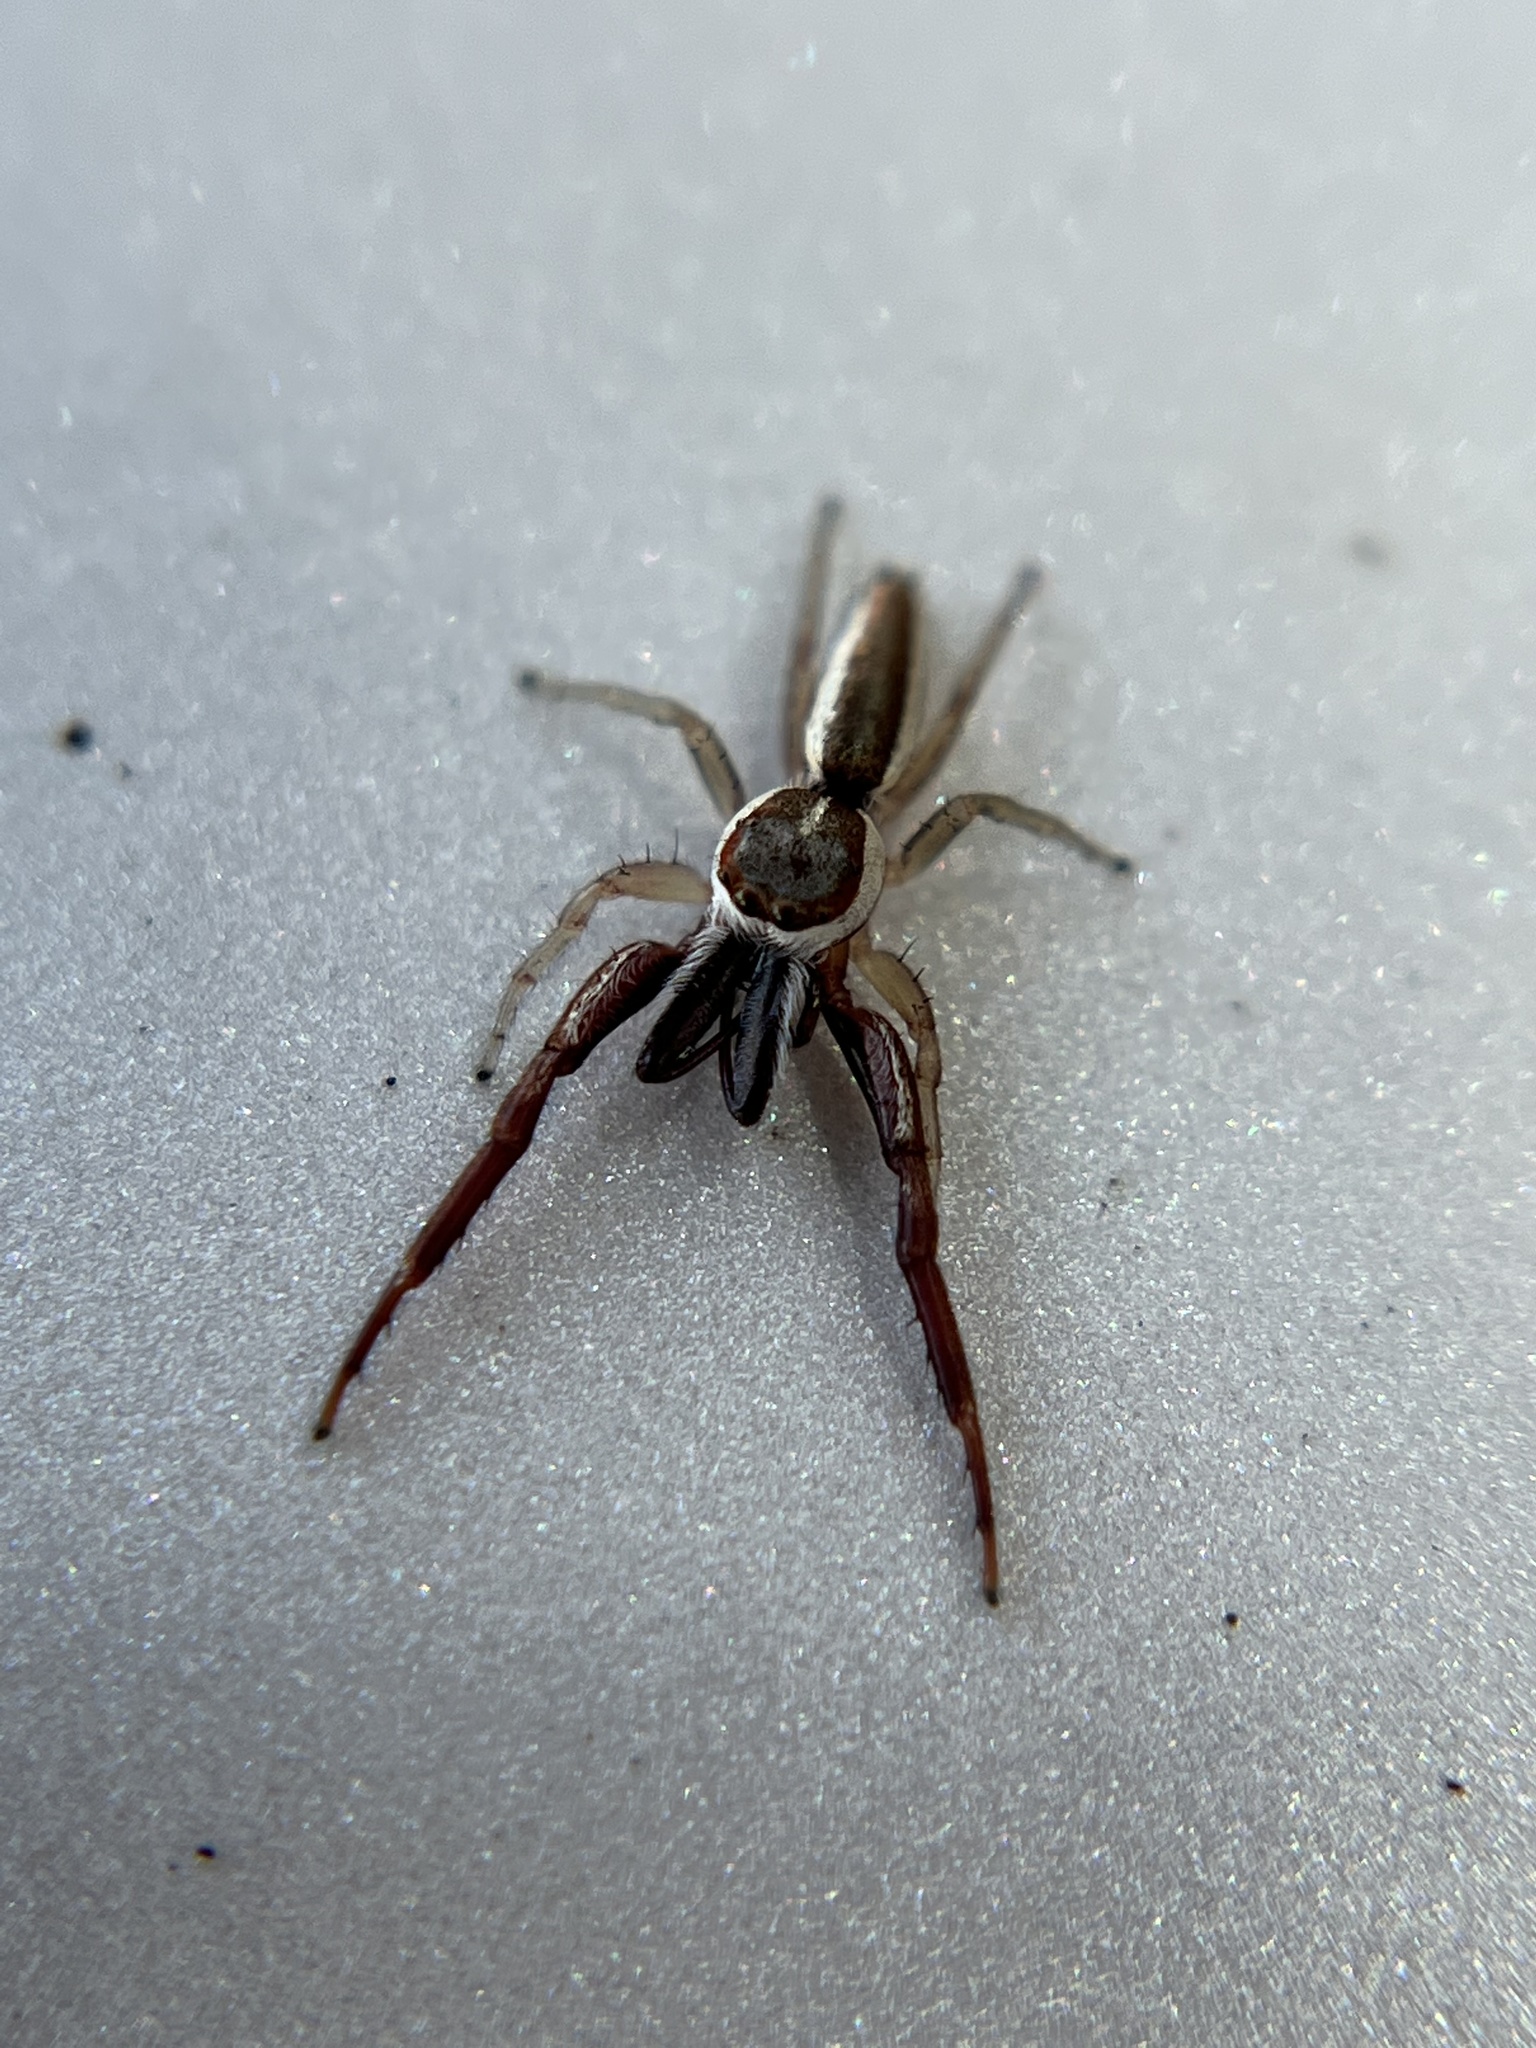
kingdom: Animalia
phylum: Arthropoda
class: Arachnida
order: Araneae
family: Salticidae
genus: Hentzia
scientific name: Hentzia palmarum
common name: Common hentz jumping spider
